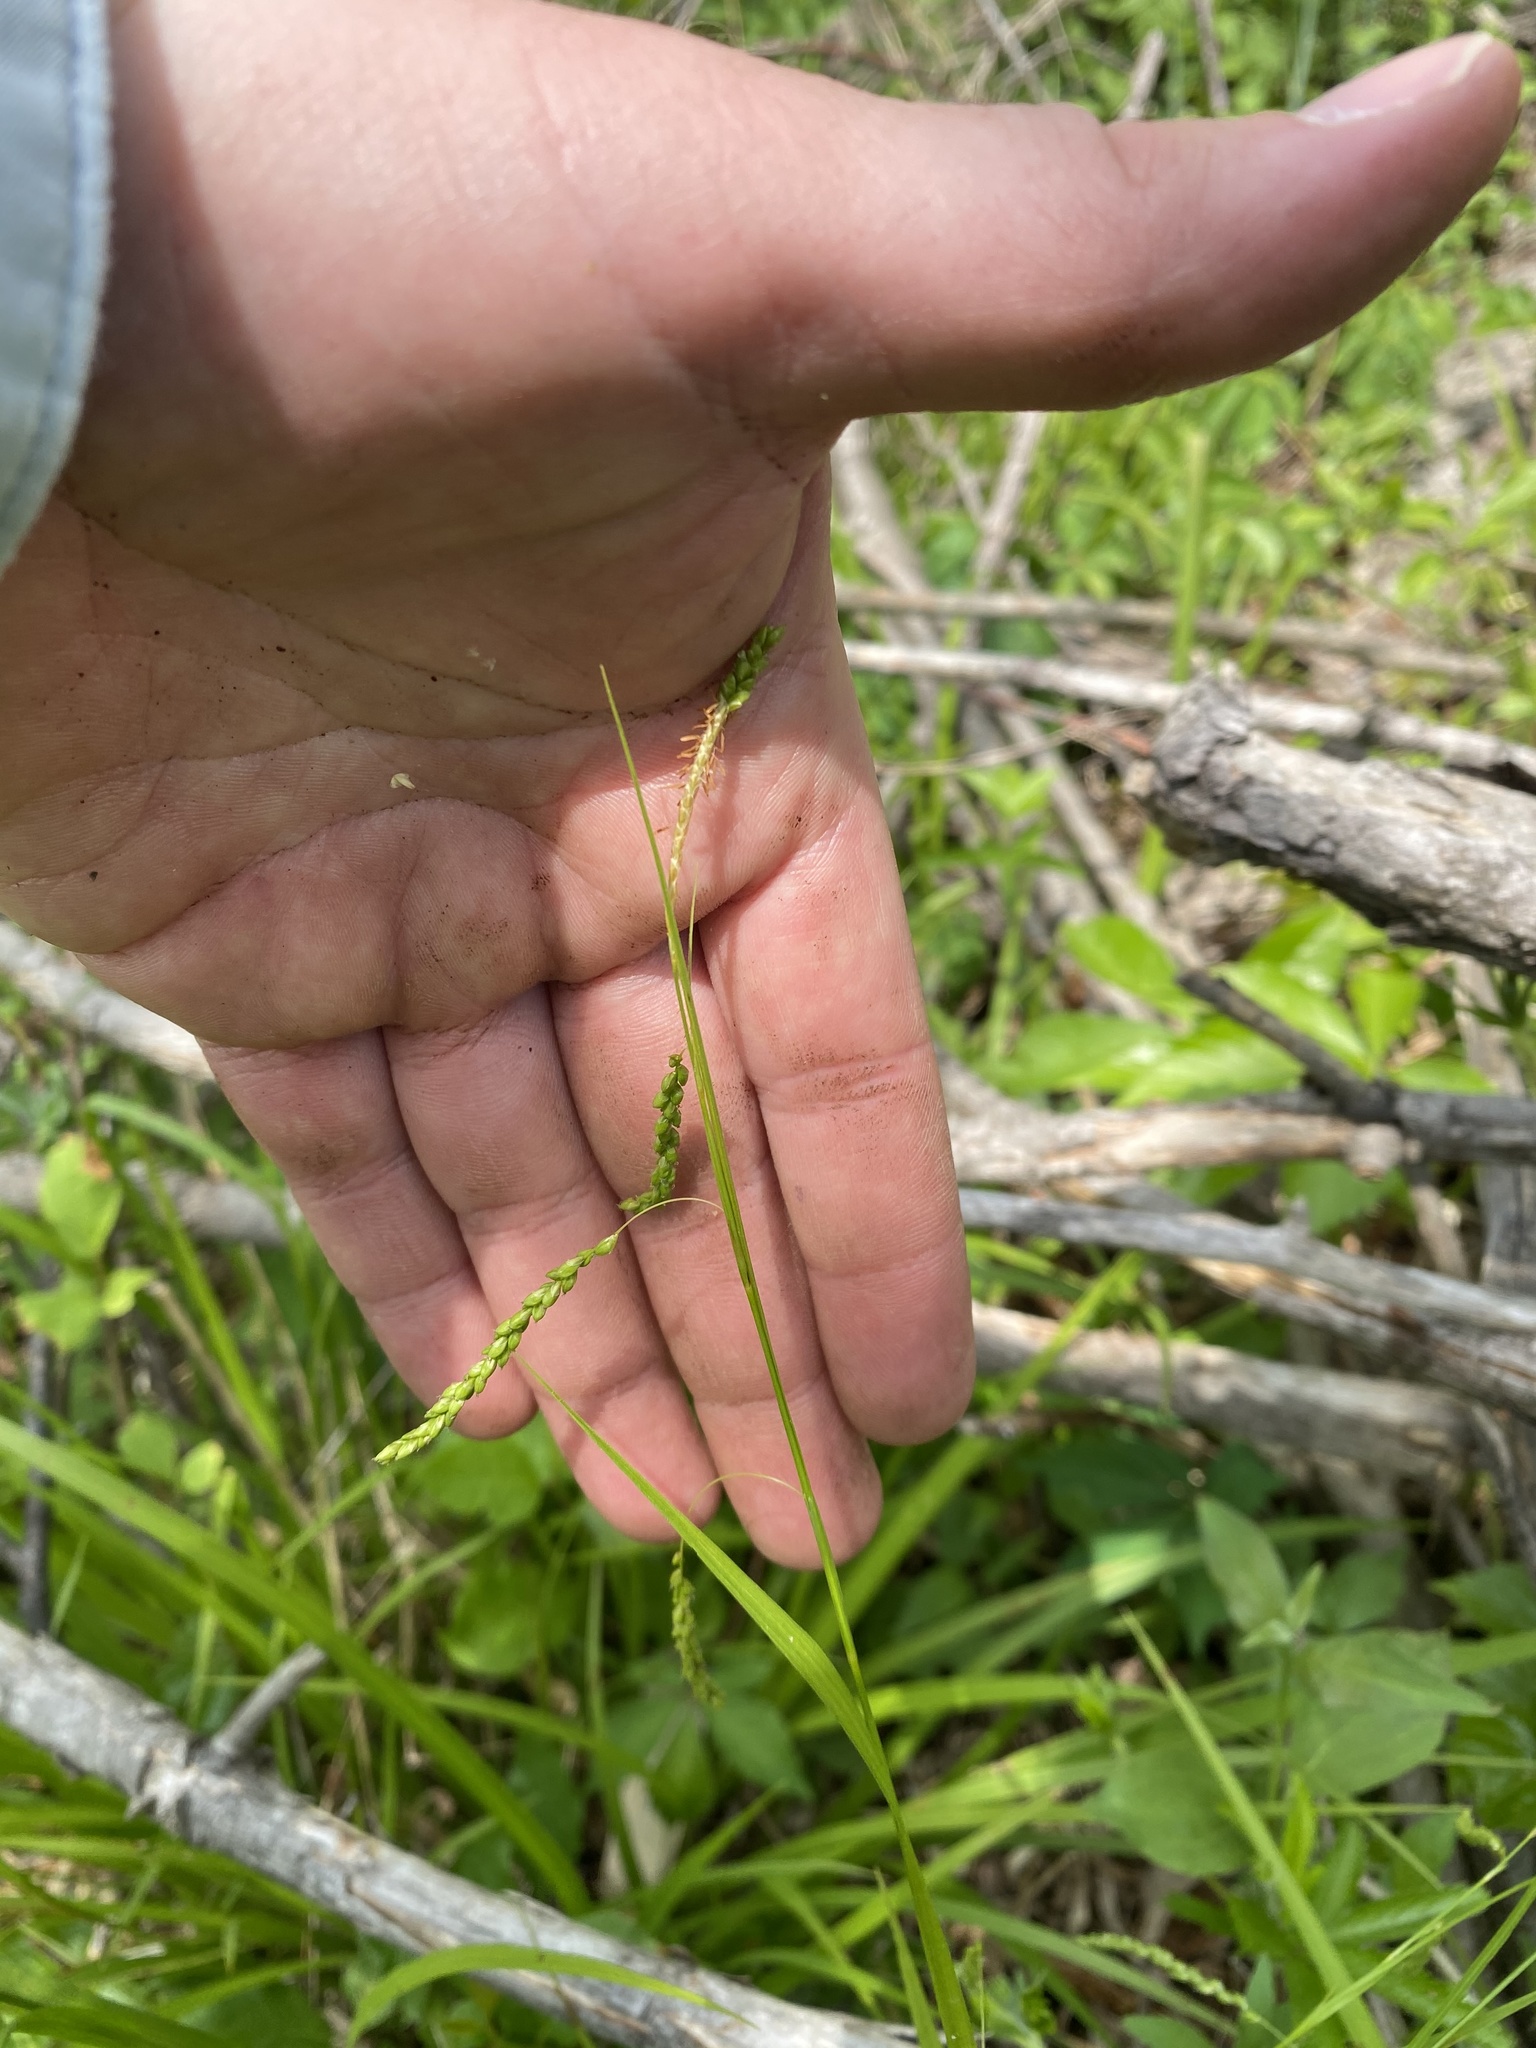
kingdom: Plantae
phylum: Tracheophyta
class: Liliopsida
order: Poales
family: Cyperaceae
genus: Carex
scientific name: Carex gracillima
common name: Graceful sedge
